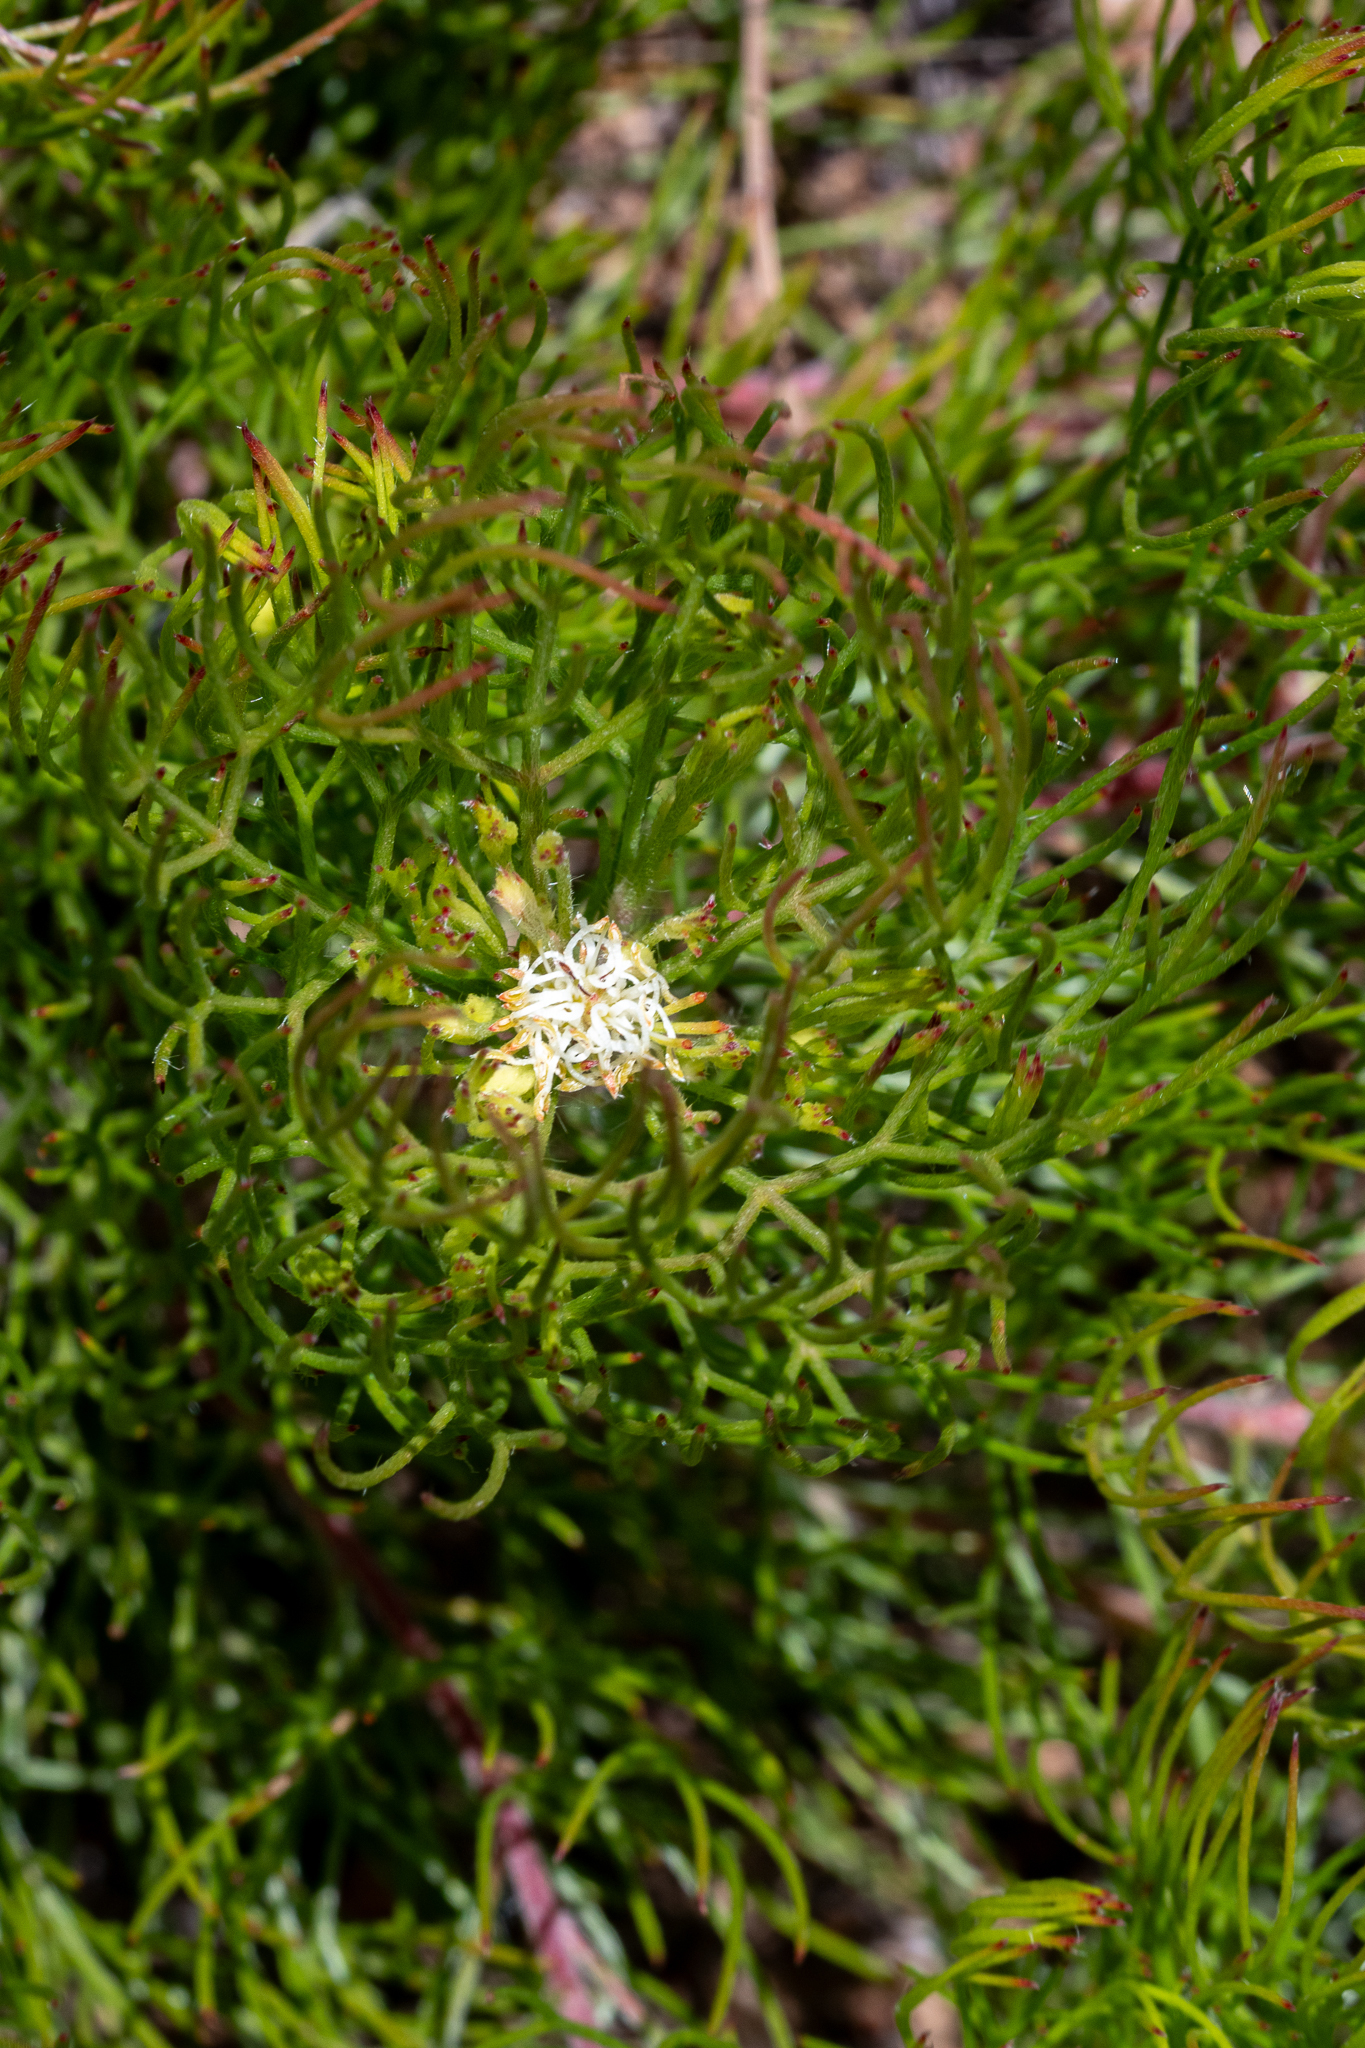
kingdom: Plantae
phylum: Tracheophyta
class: Magnoliopsida
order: Proteales
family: Proteaceae
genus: Serruria
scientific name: Serruria inconspicua
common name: Cryptic spiderhead
